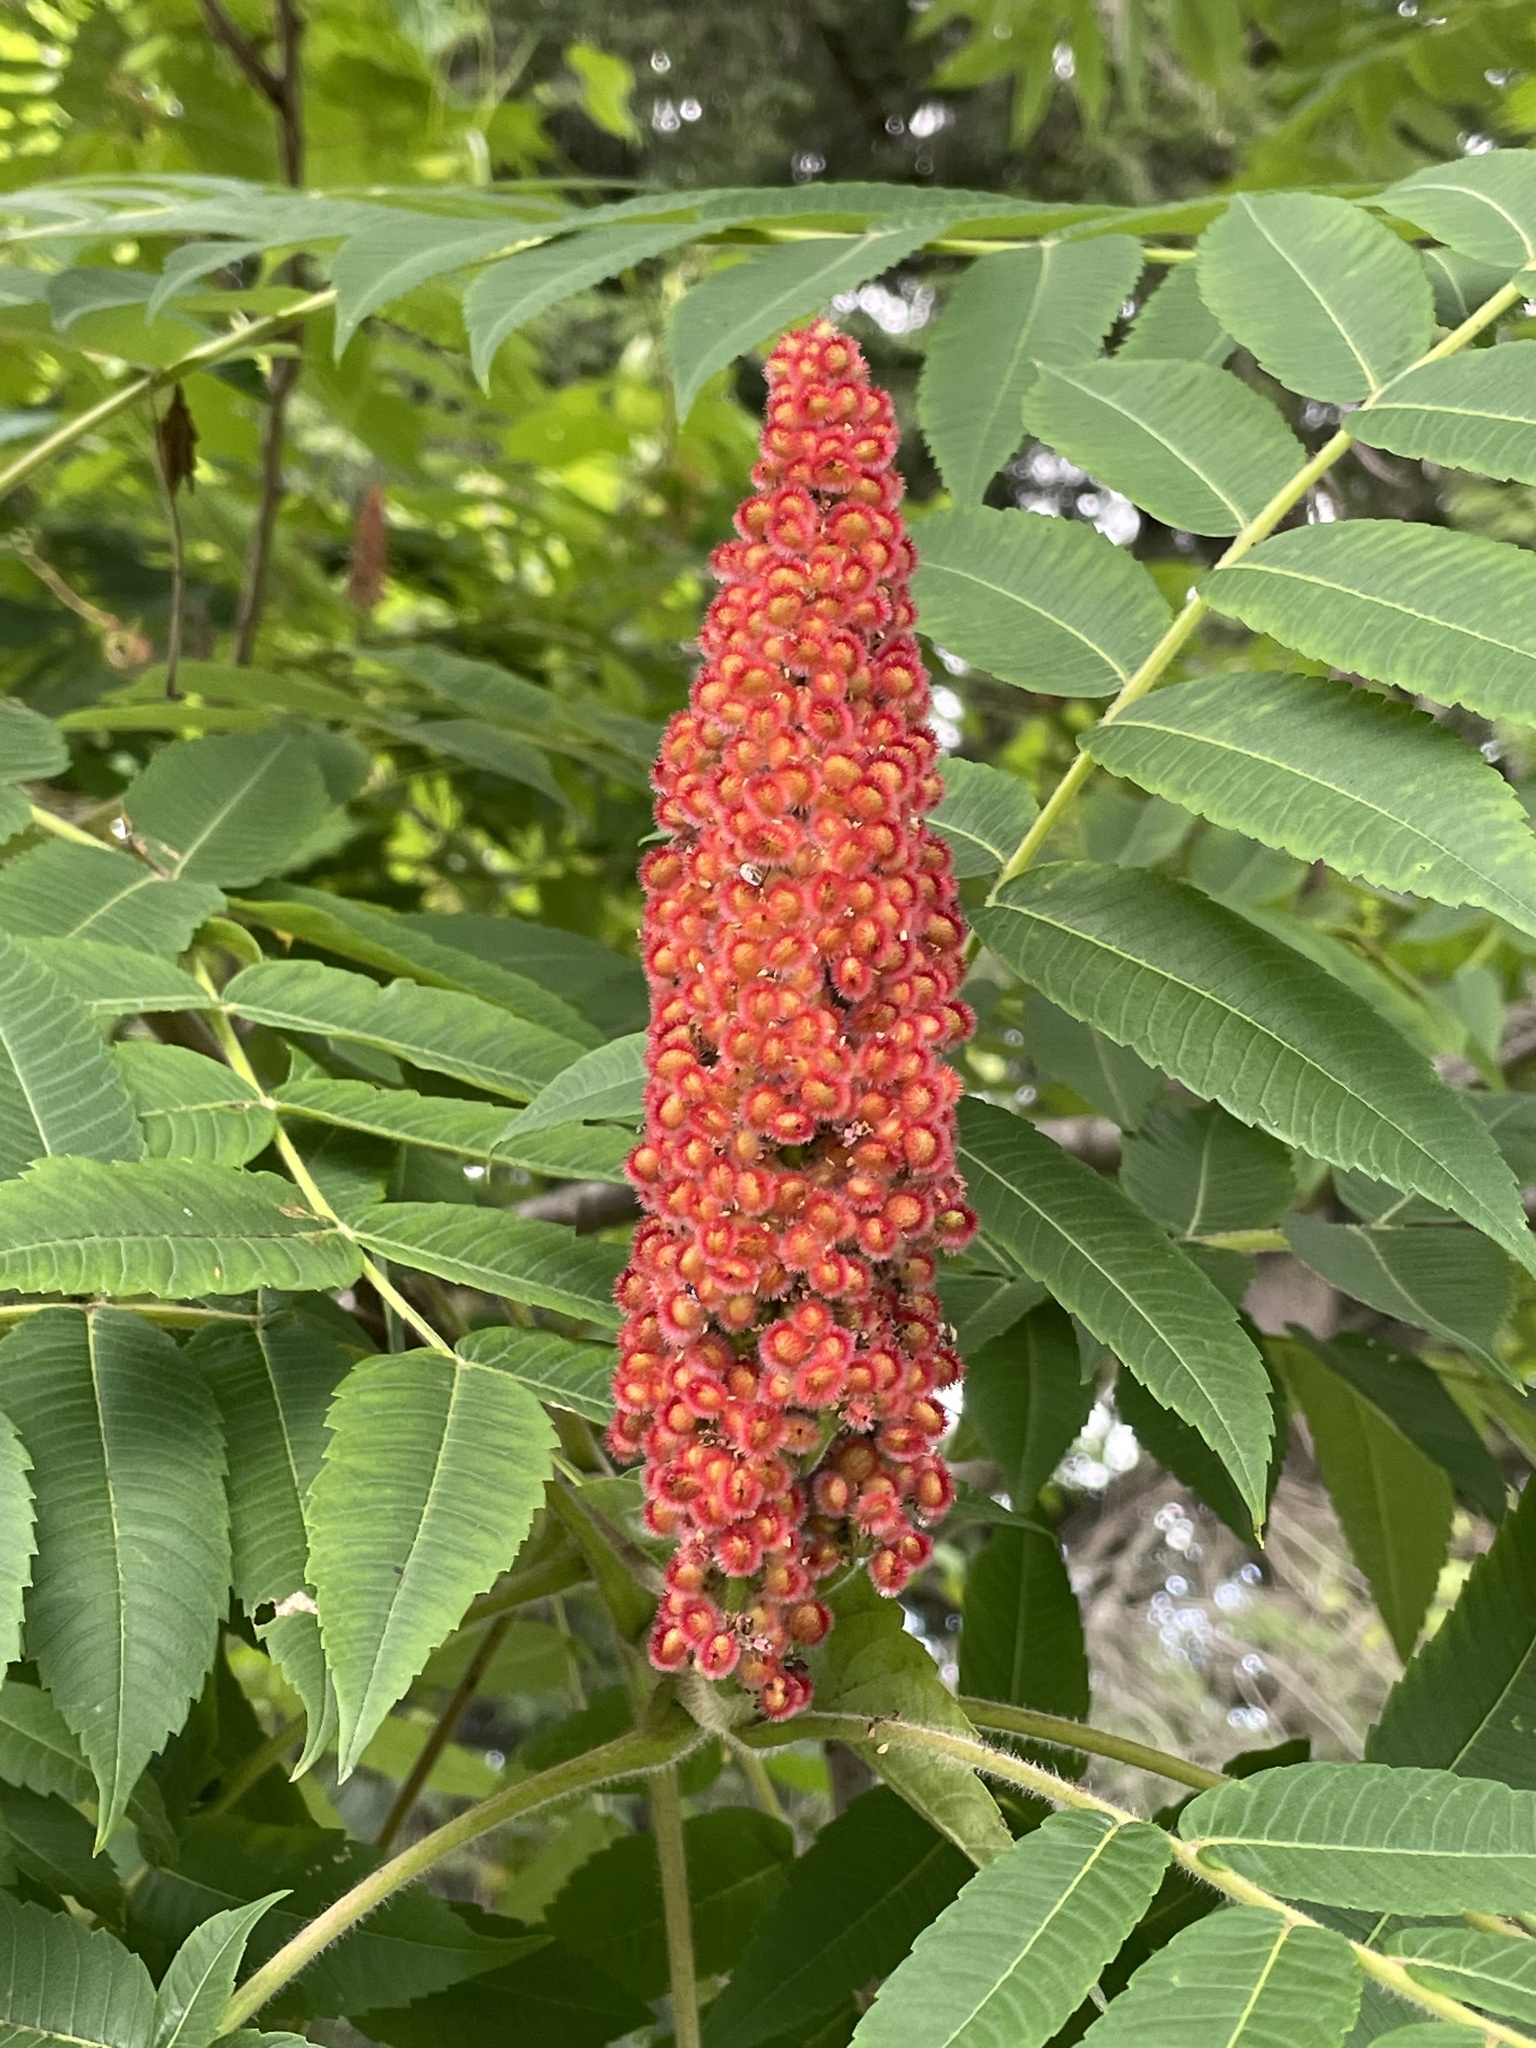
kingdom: Plantae
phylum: Tracheophyta
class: Magnoliopsida
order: Sapindales
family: Anacardiaceae
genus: Rhus
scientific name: Rhus typhina
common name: Staghorn sumac
